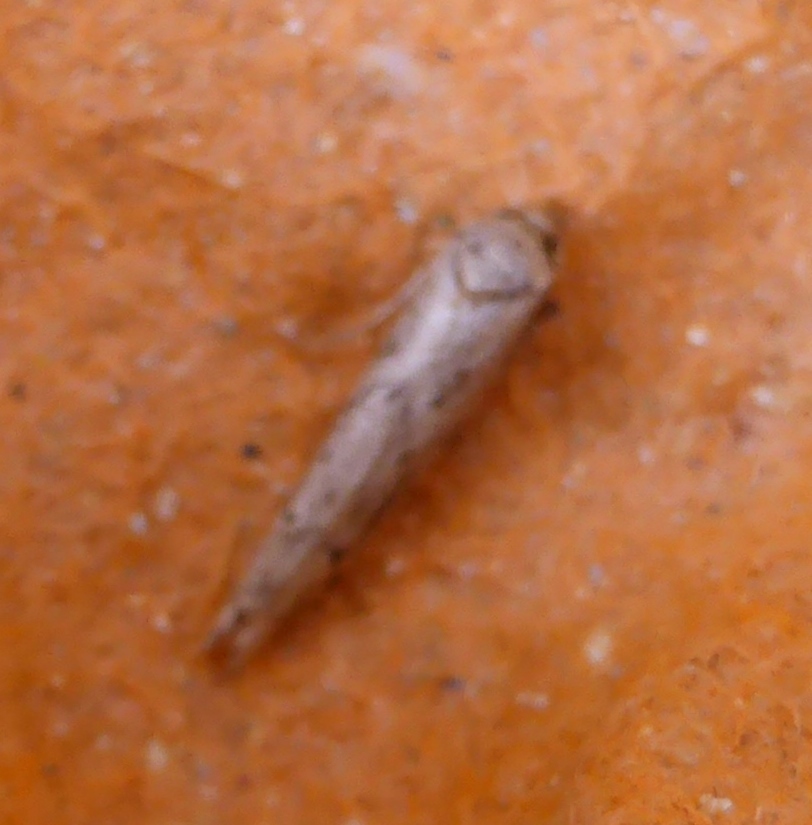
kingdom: Animalia
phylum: Arthropoda
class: Insecta
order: Lepidoptera
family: Blastobasidae
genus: Blastobasis
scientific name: Blastobasis adustella
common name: Dingy dowd
